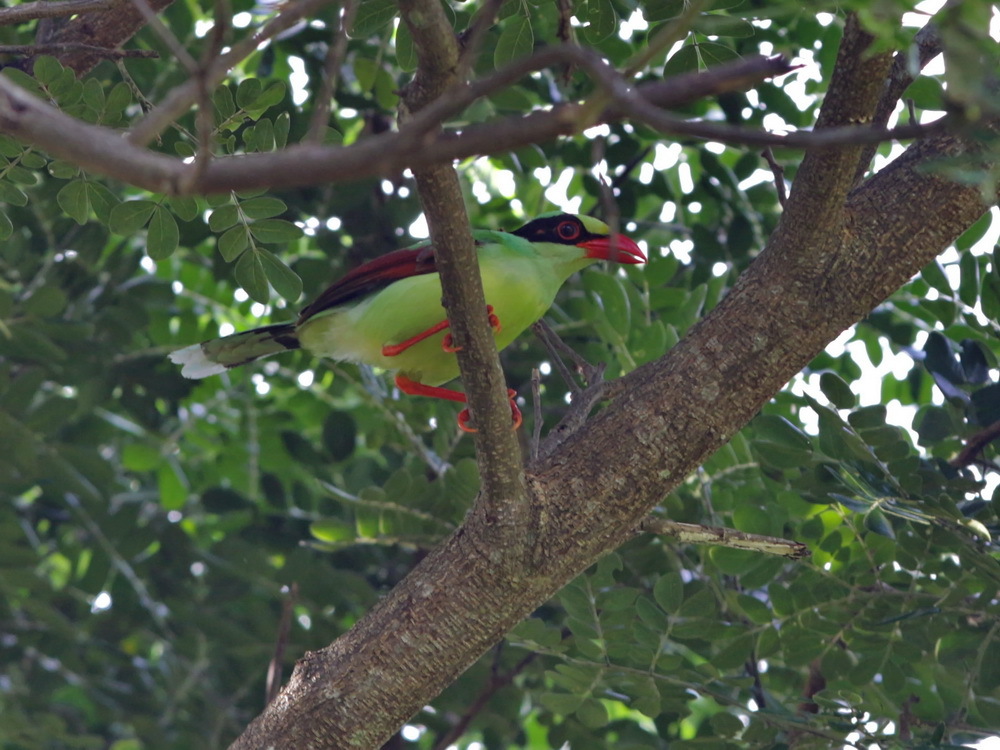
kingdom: Animalia
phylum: Chordata
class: Aves
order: Passeriformes
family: Corvidae
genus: Cissa
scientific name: Cissa chinensis
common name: Common green magpie
